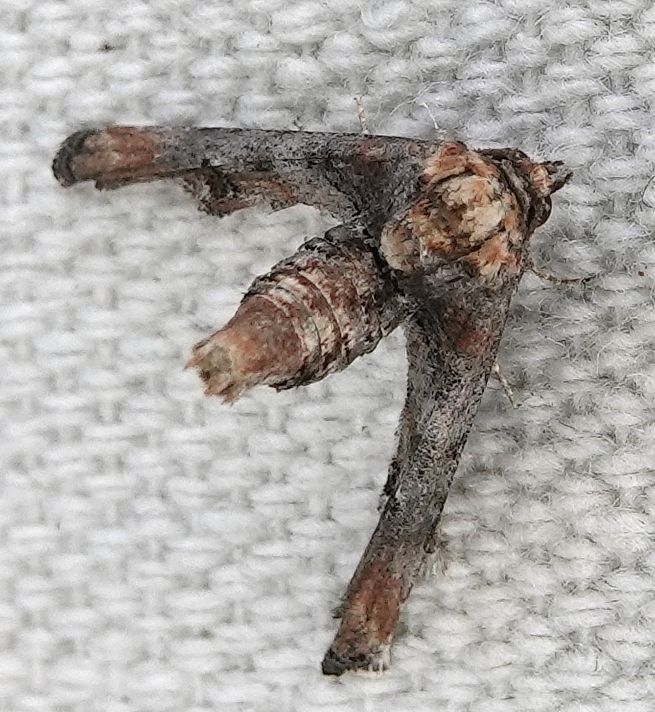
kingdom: Animalia
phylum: Arthropoda
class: Insecta
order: Lepidoptera
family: Euteliidae
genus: Marathyssa
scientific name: Marathyssa inficita
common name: Dark marathyssa moth
